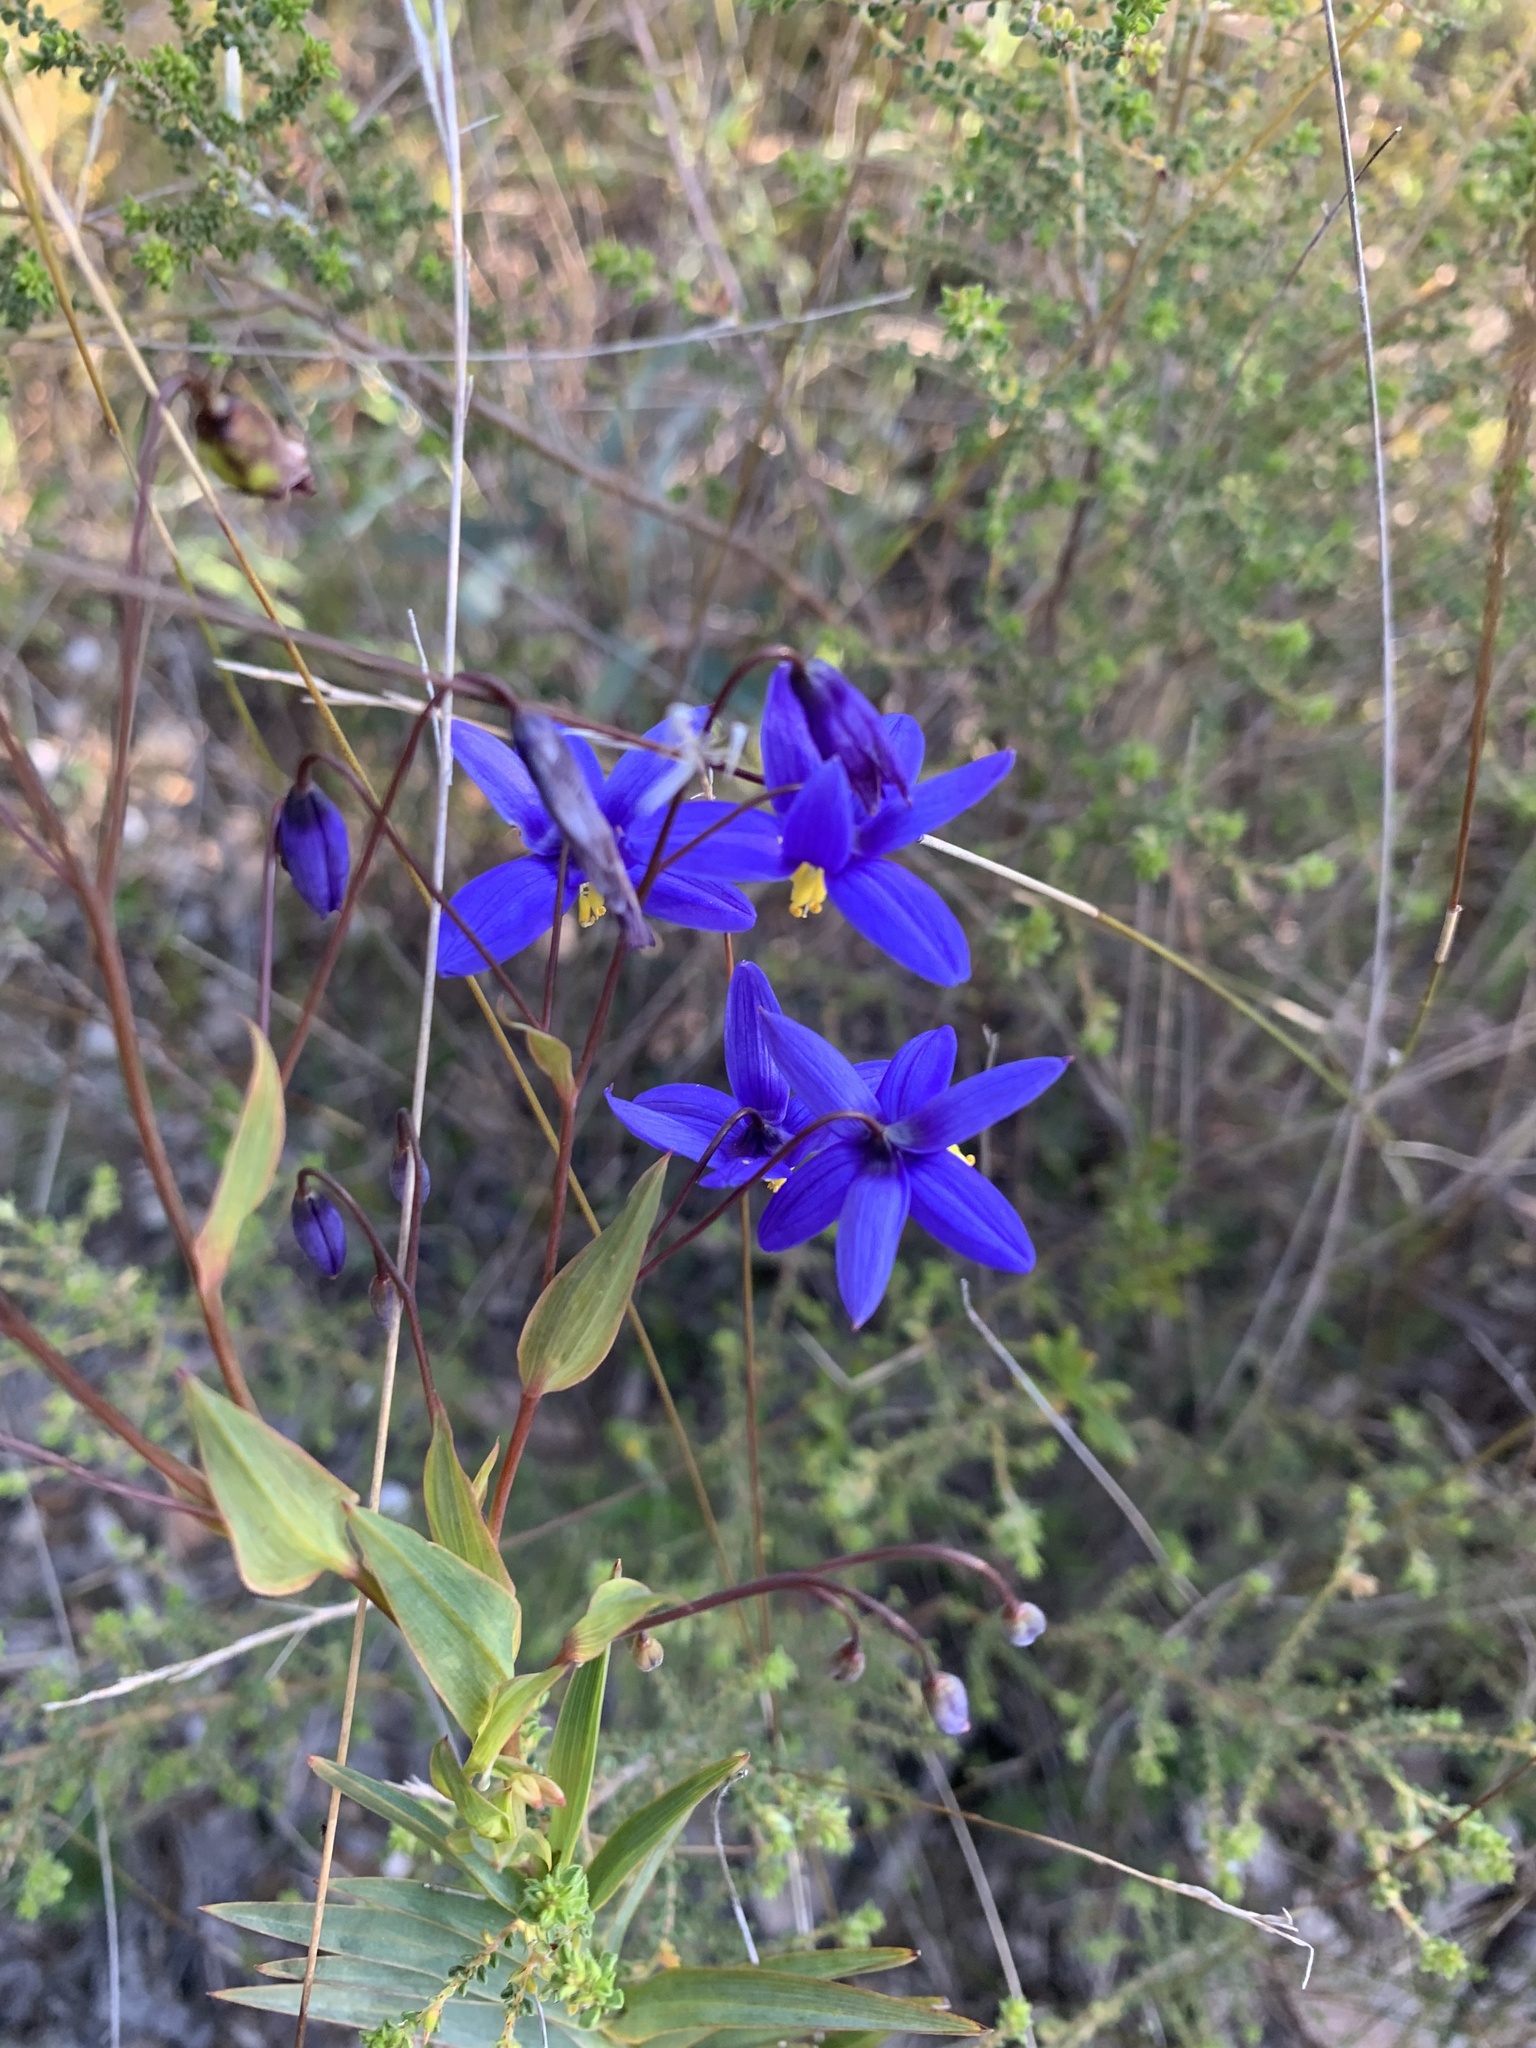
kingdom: Plantae
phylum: Tracheophyta
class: Liliopsida
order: Asparagales
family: Asphodelaceae
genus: Stypandra
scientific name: Stypandra glauca
